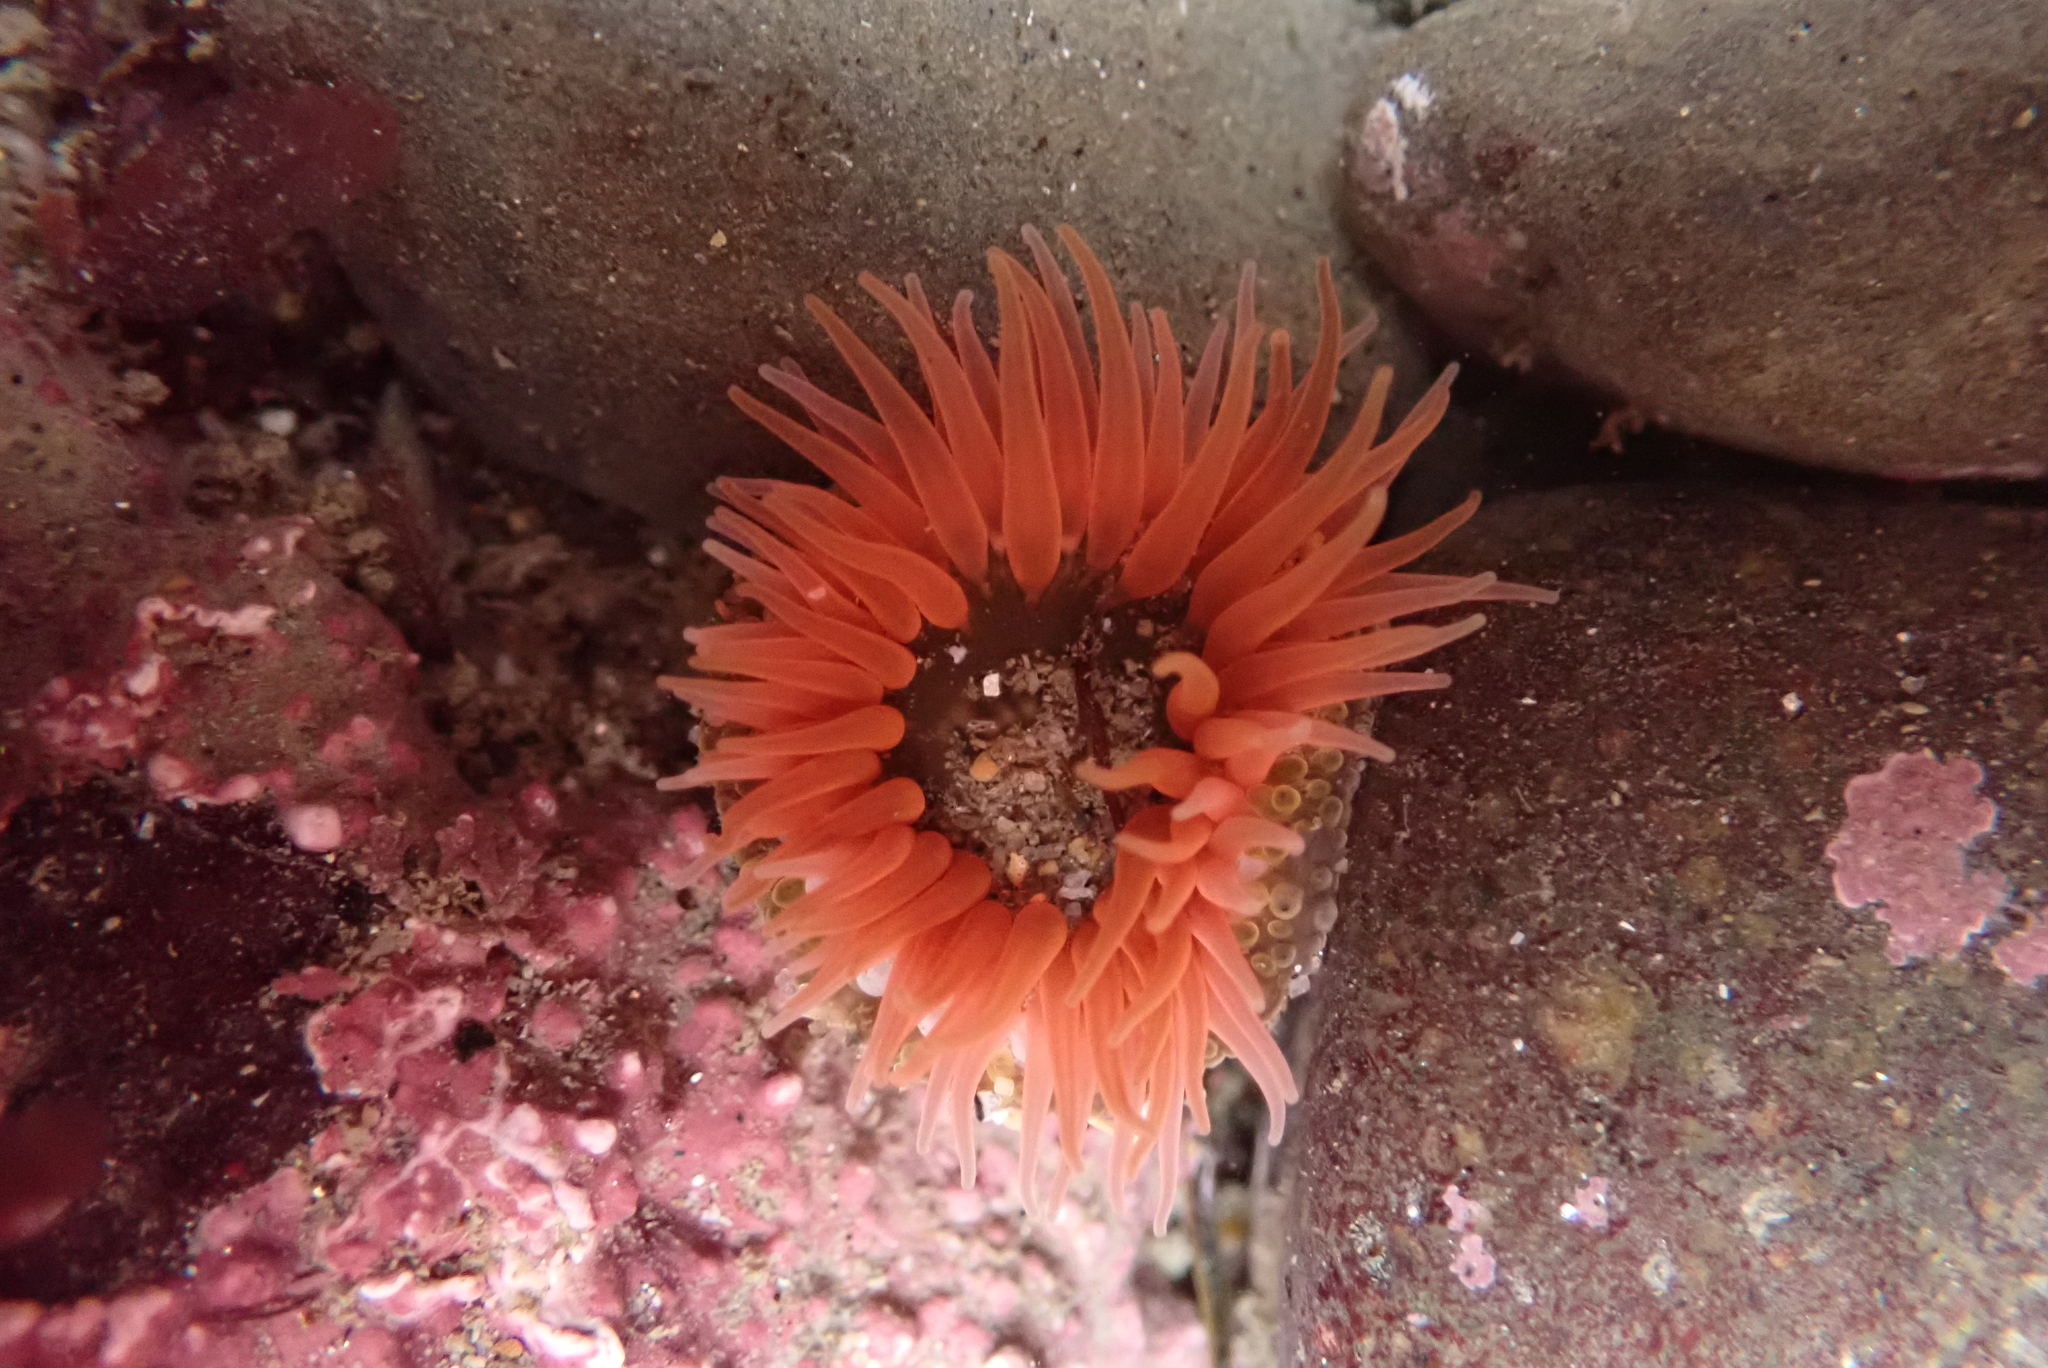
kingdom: Animalia
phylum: Cnidaria
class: Anthozoa
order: Actiniaria
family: Actiniidae
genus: Anthopleura
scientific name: Anthopleura artemisia
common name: Buried sea anemone
